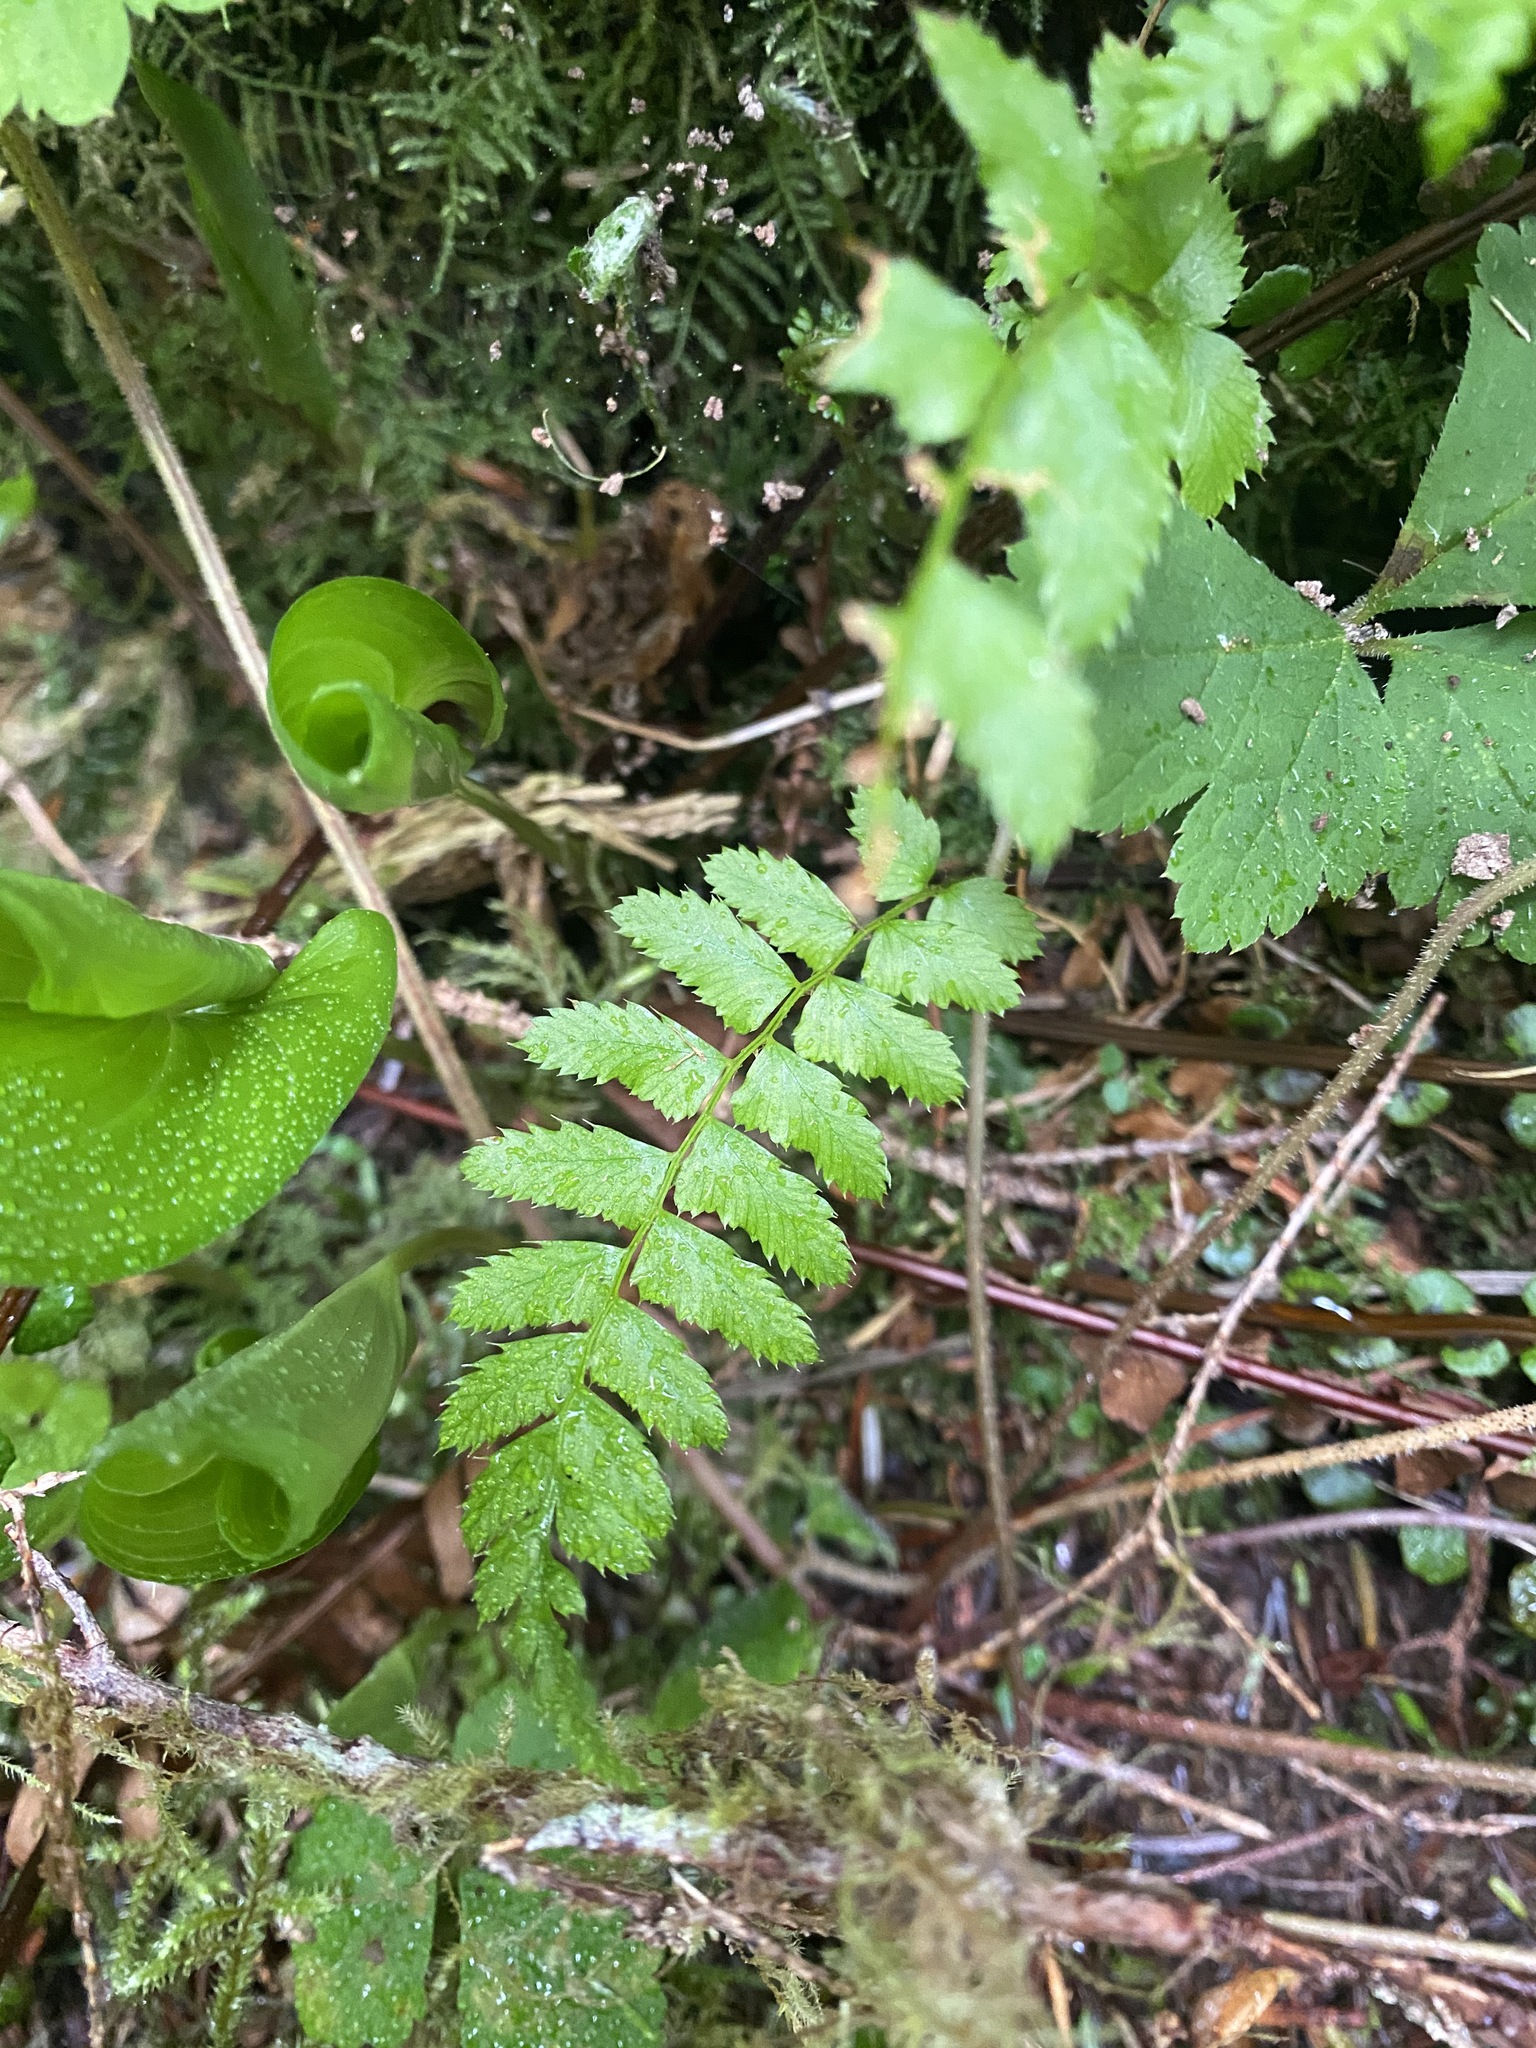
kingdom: Plantae
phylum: Tracheophyta
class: Polypodiopsida
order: Polypodiales
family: Dryopteridaceae
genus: Polystichum
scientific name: Polystichum munitum
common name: Western sword-fern
